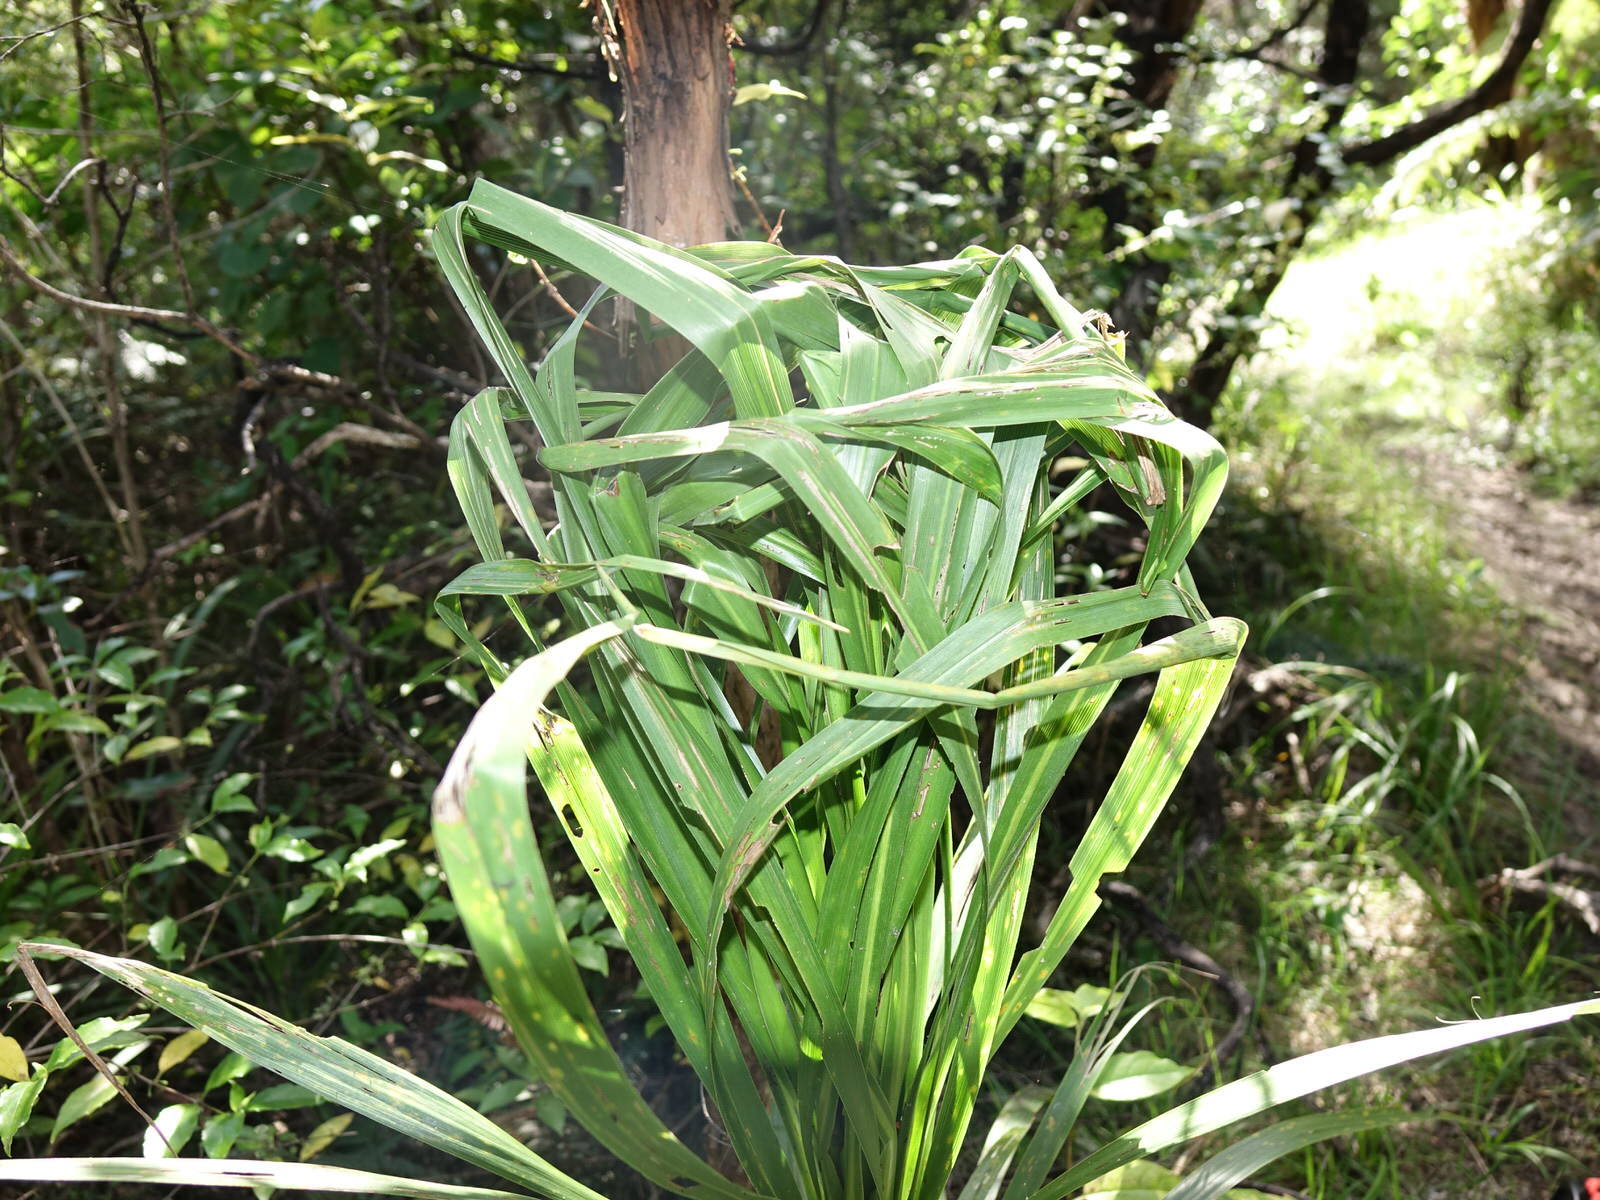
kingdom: Plantae
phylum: Tracheophyta
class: Liliopsida
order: Asparagales
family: Asparagaceae
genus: Cordyline
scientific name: Cordyline banksii
